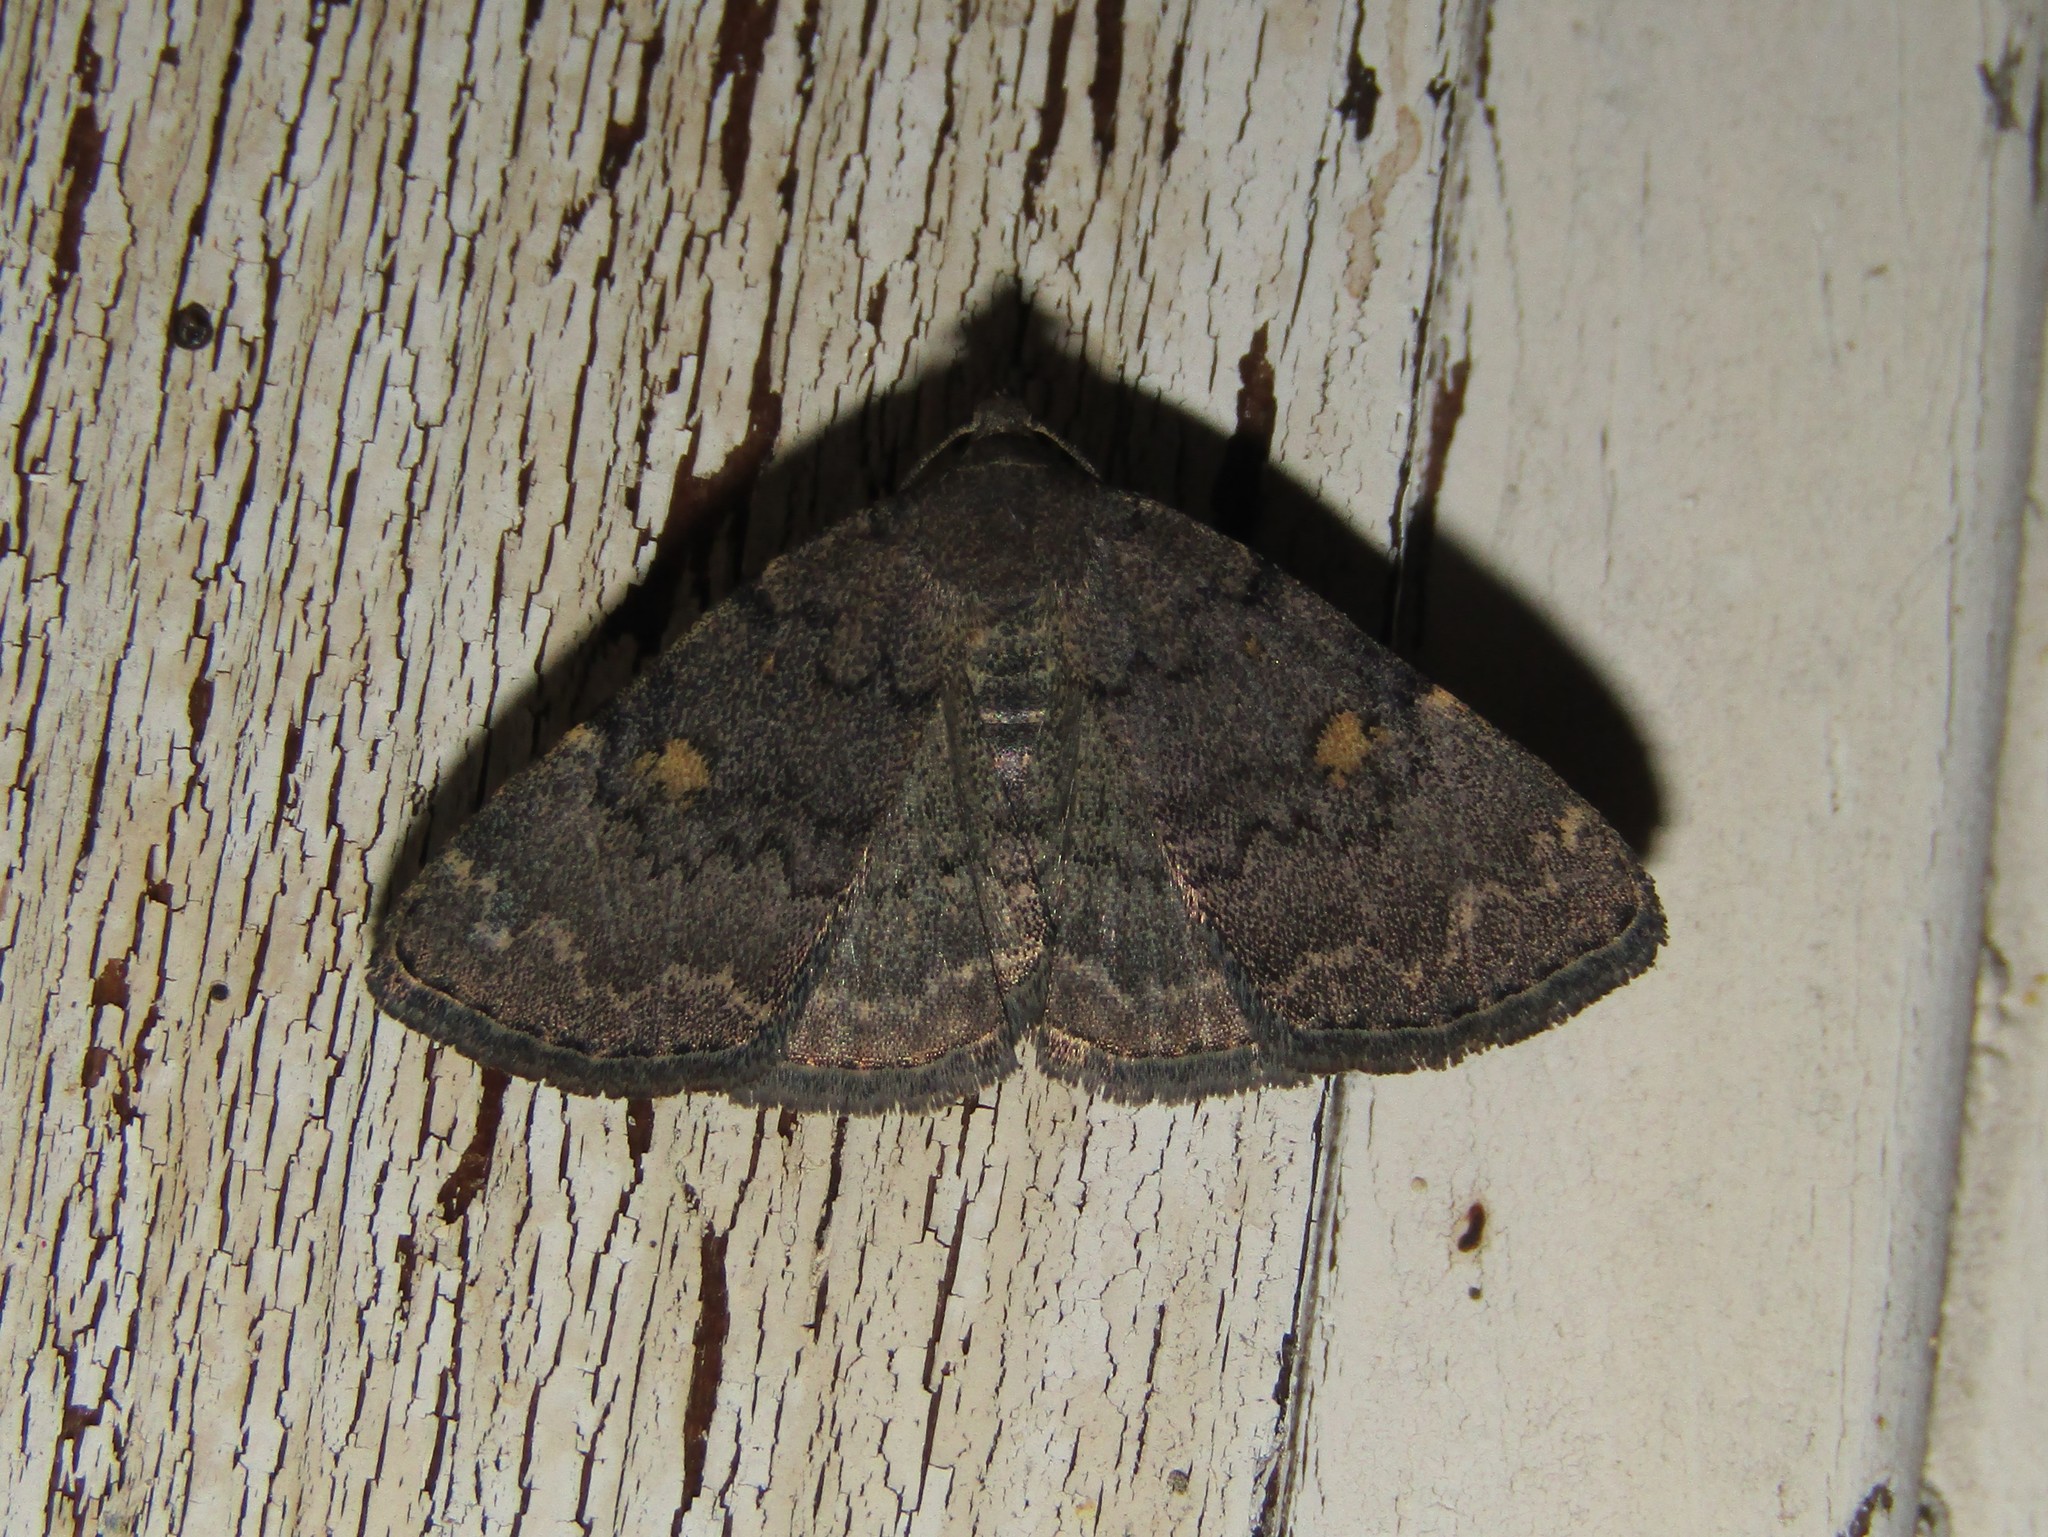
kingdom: Animalia
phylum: Arthropoda
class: Insecta
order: Lepidoptera
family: Erebidae
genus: Idia
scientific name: Idia aemula
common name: Common idia moth
